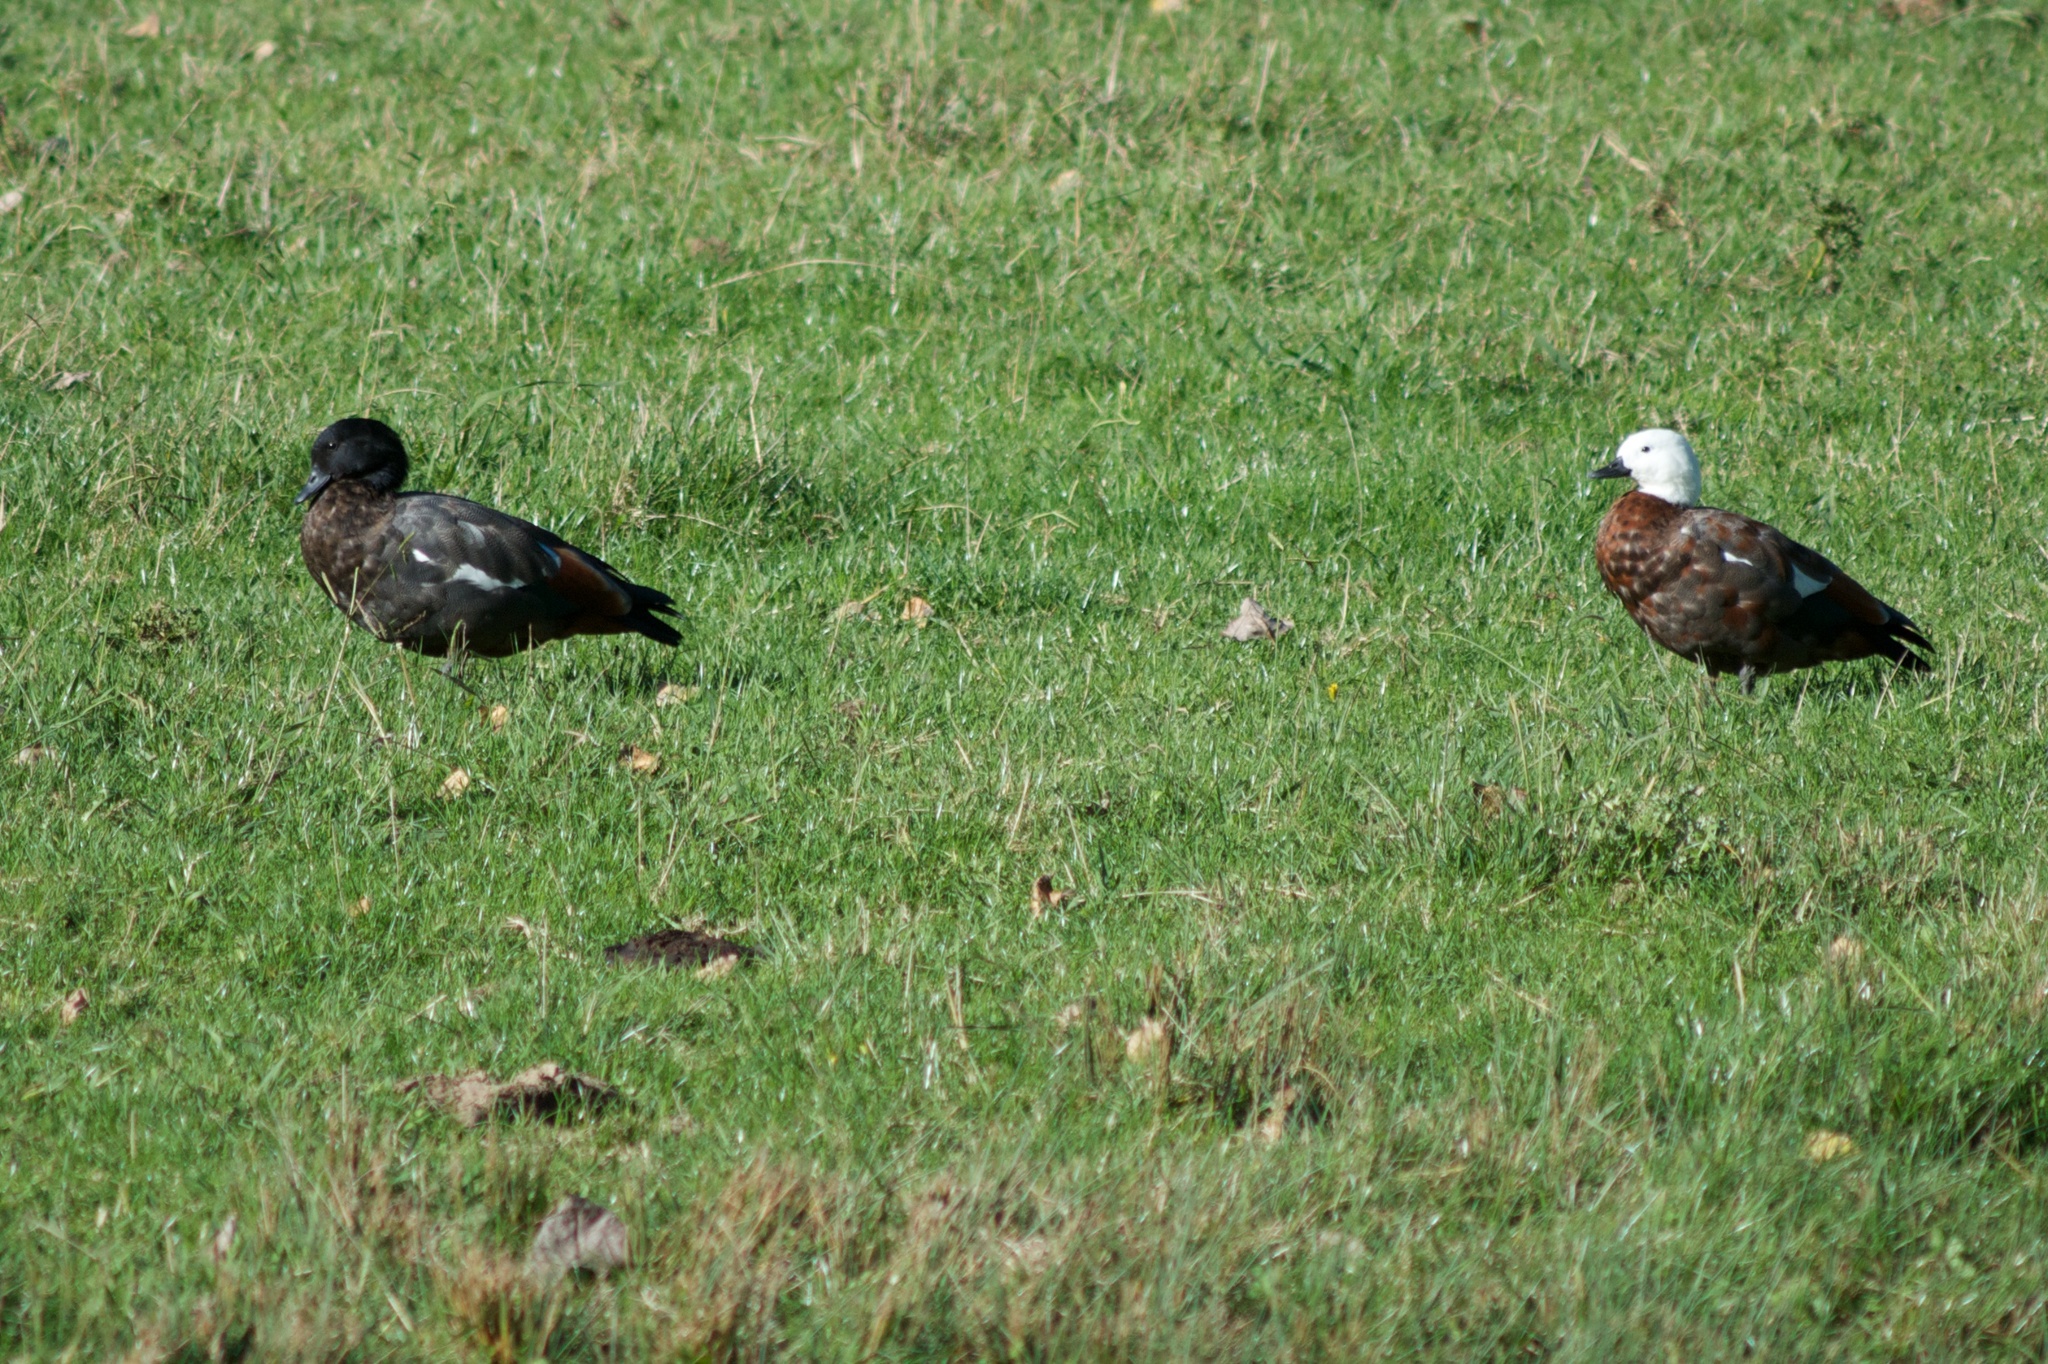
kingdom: Animalia
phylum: Chordata
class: Aves
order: Anseriformes
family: Anatidae
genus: Tadorna
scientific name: Tadorna variegata
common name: Paradise shelduck
